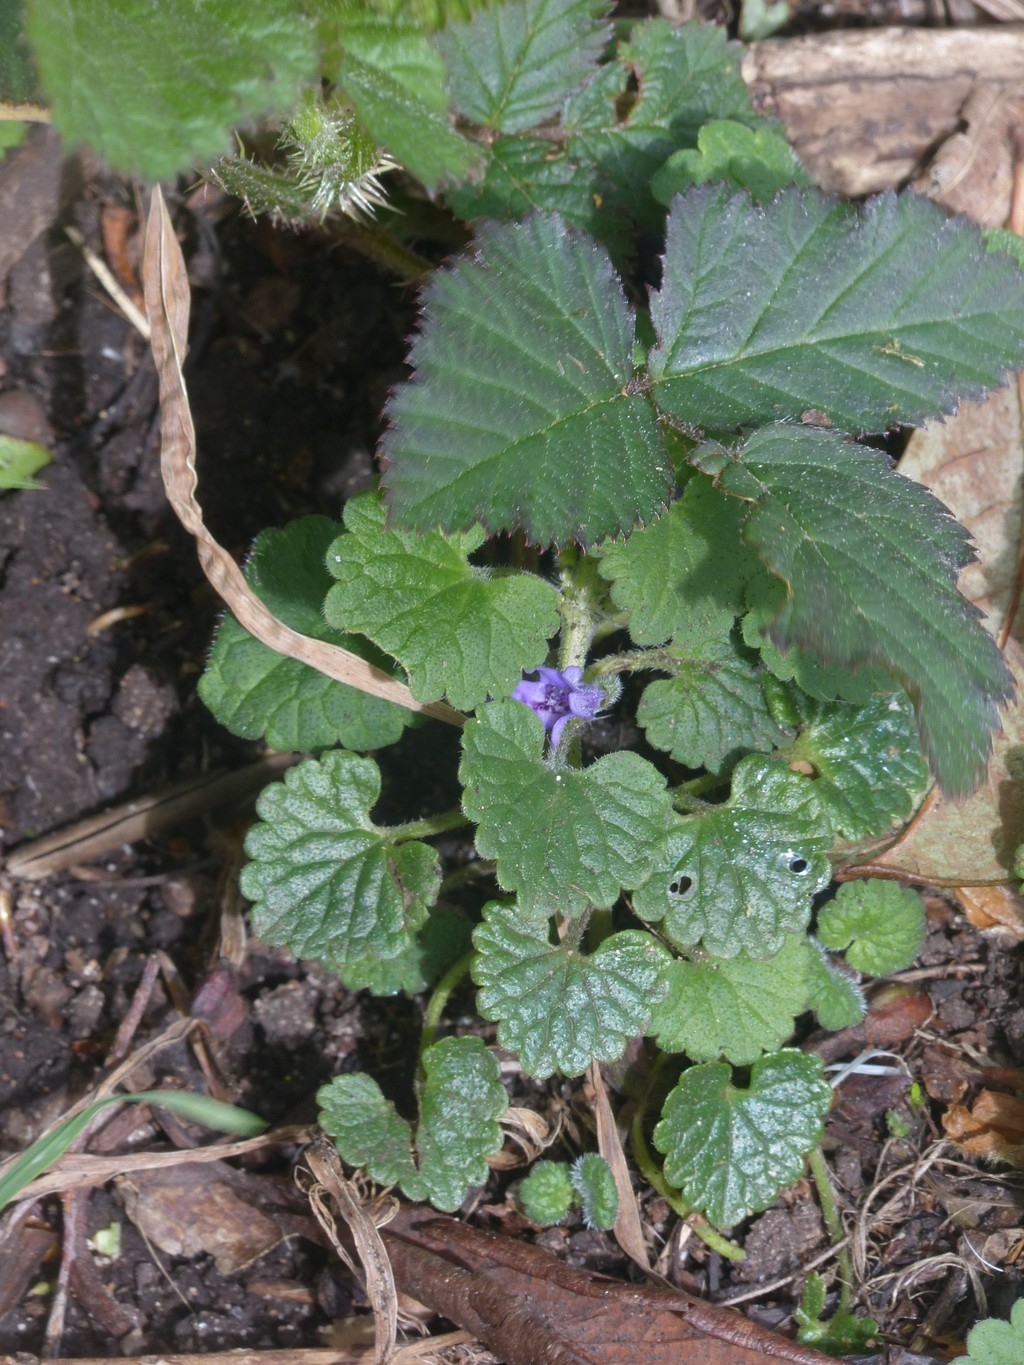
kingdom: Plantae
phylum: Tracheophyta
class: Magnoliopsida
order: Lamiales
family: Lamiaceae
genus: Glechoma
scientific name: Glechoma hederacea
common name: Ground ivy
